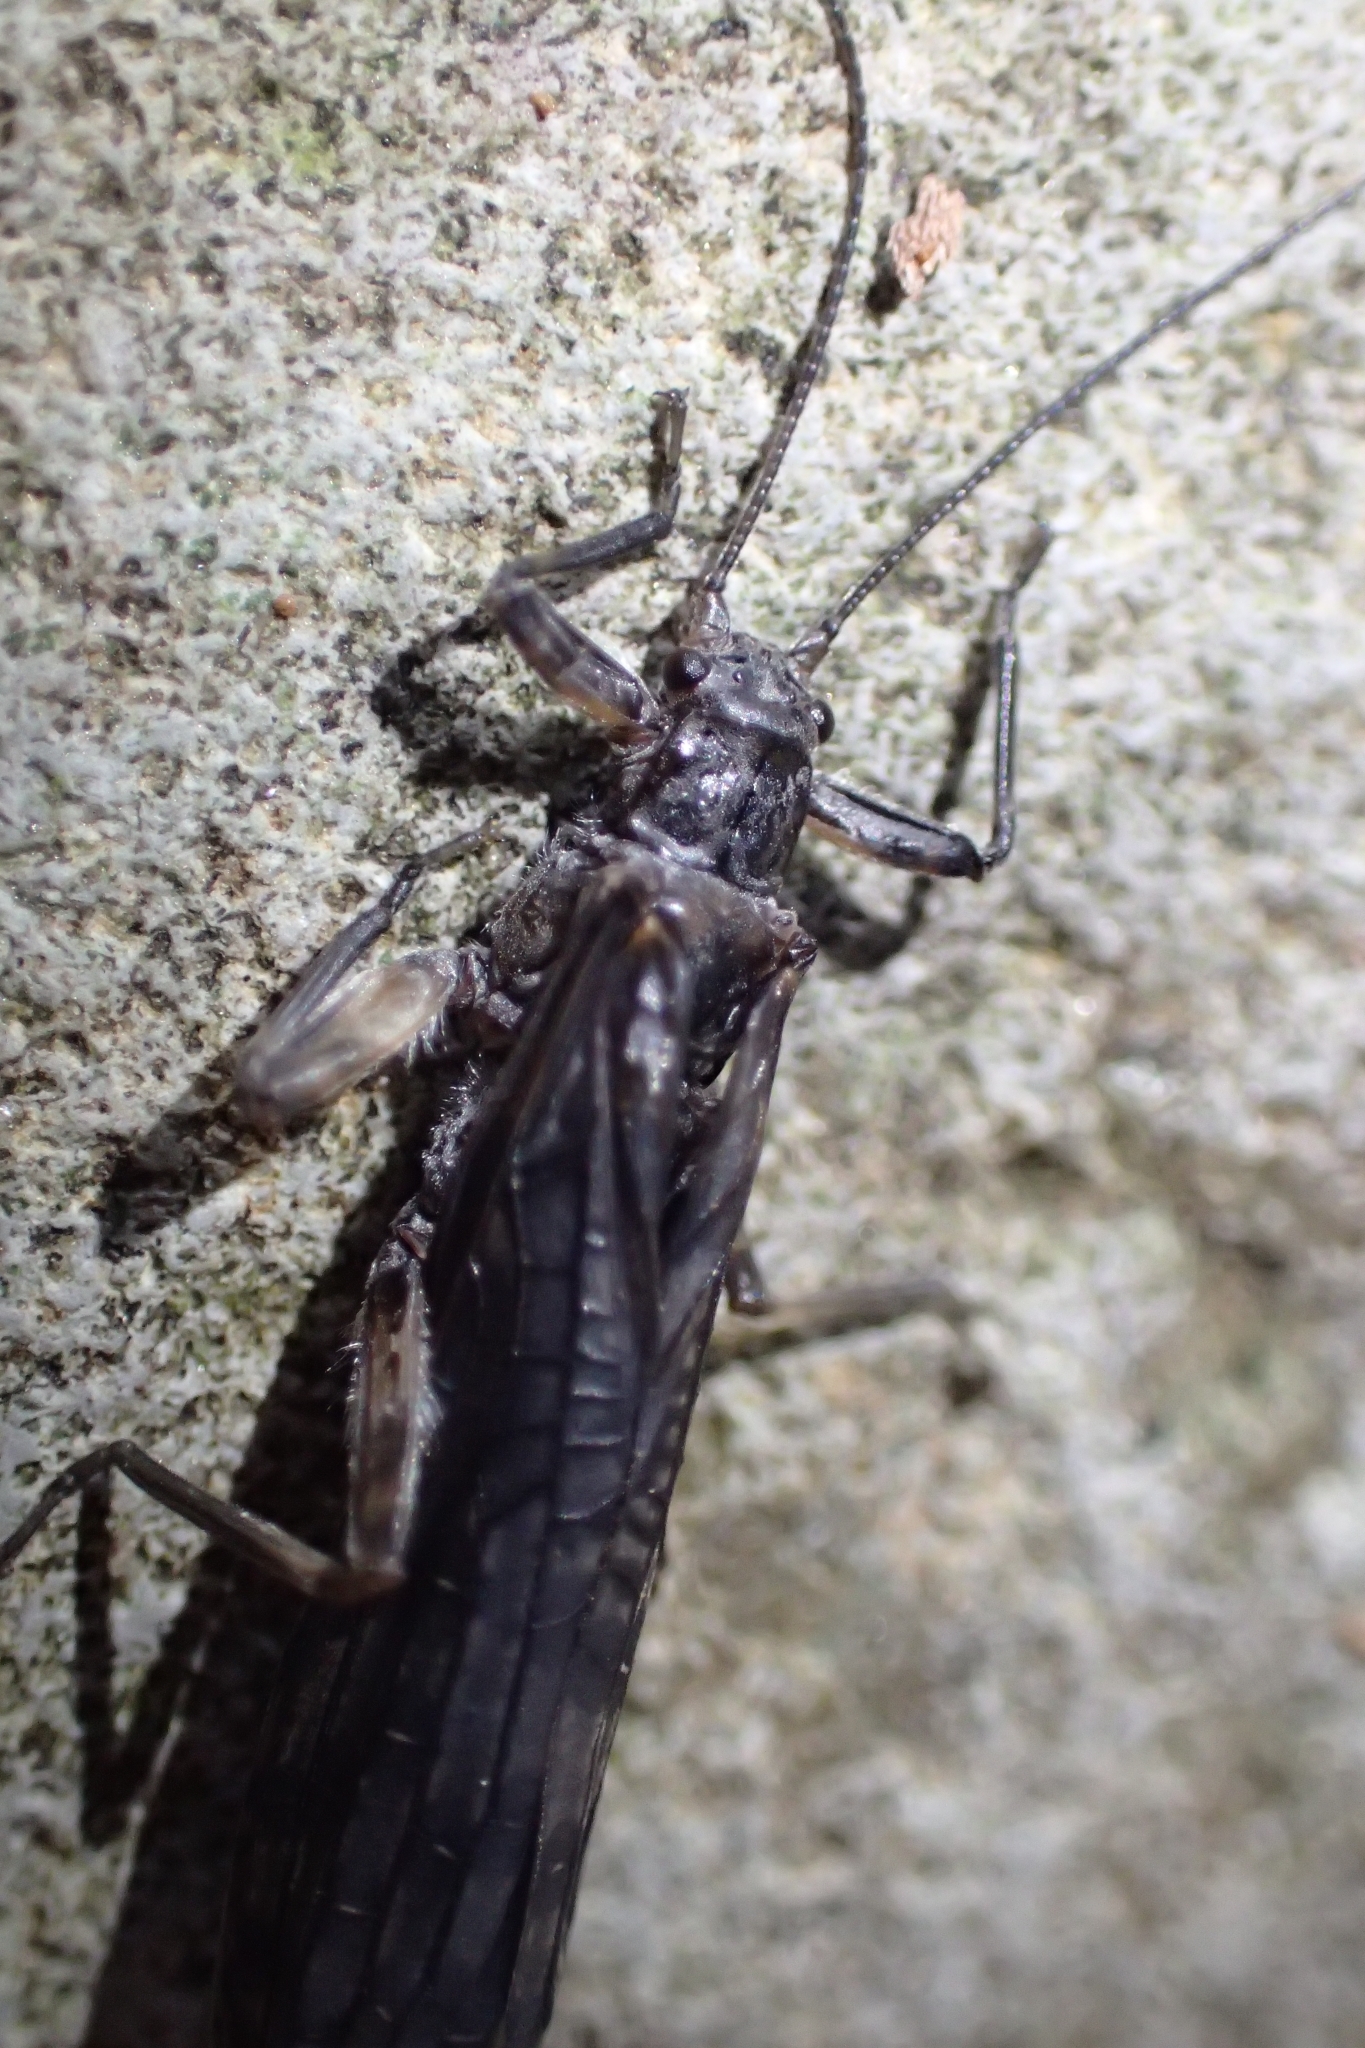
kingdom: Animalia
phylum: Arthropoda
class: Insecta
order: Plecoptera
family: Gripopterygidae
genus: Zelandoperla
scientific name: Zelandoperla decorata
